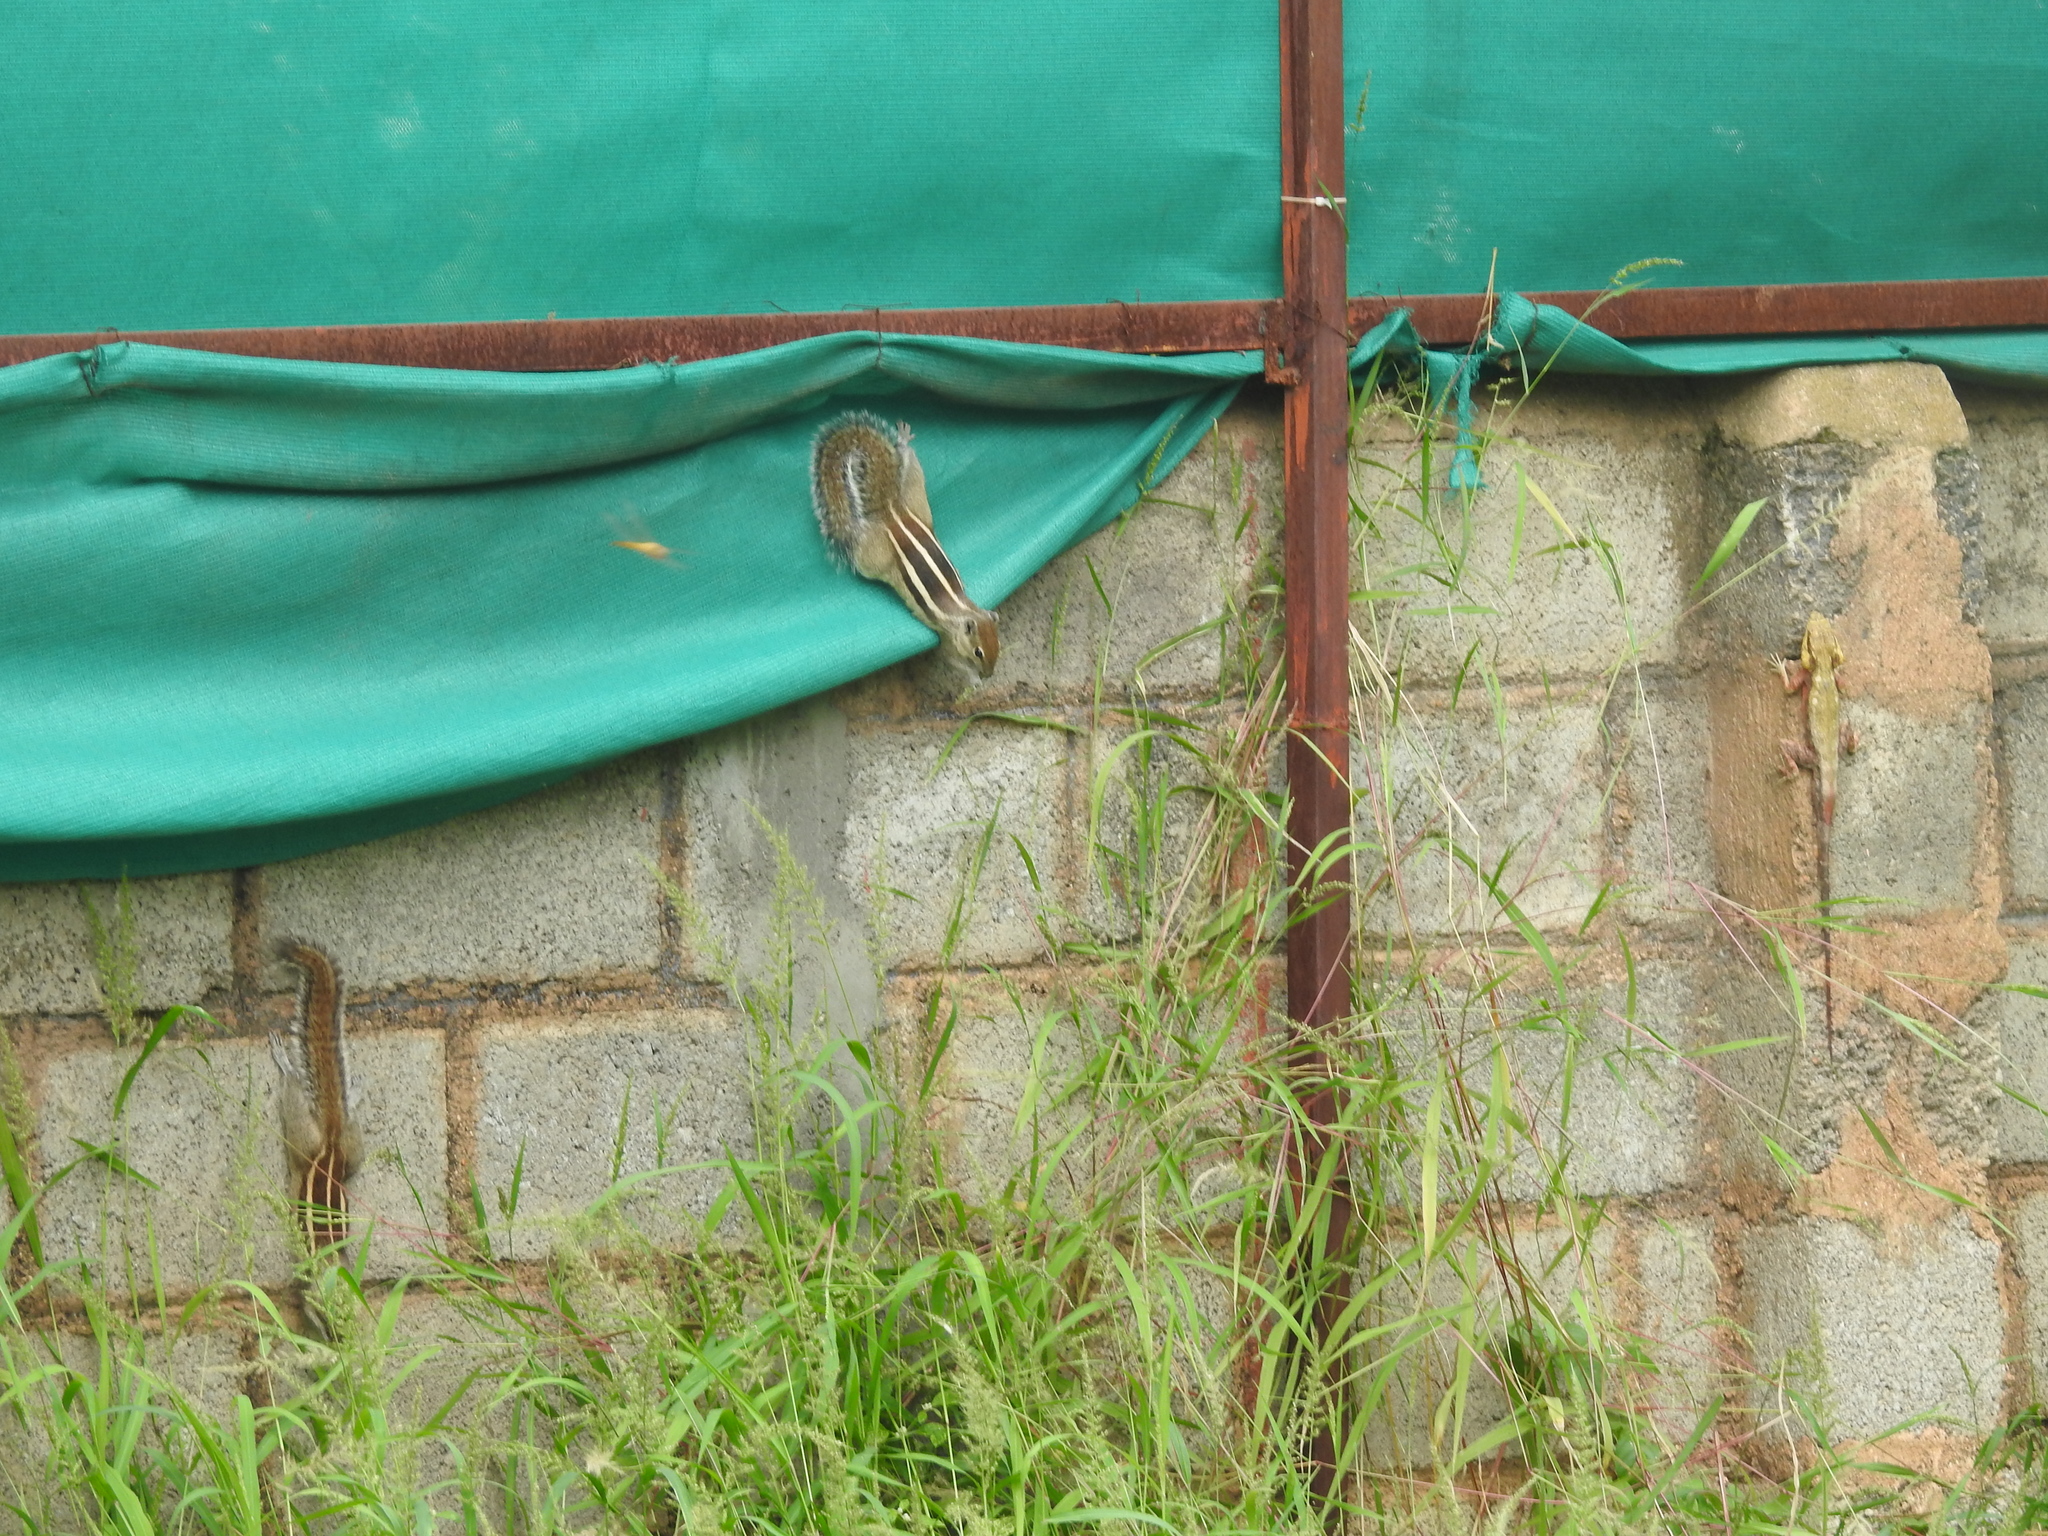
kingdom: Animalia
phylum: Chordata
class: Mammalia
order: Rodentia
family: Sciuridae
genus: Funambulus
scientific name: Funambulus palmarum
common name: Indian palm squirrel
